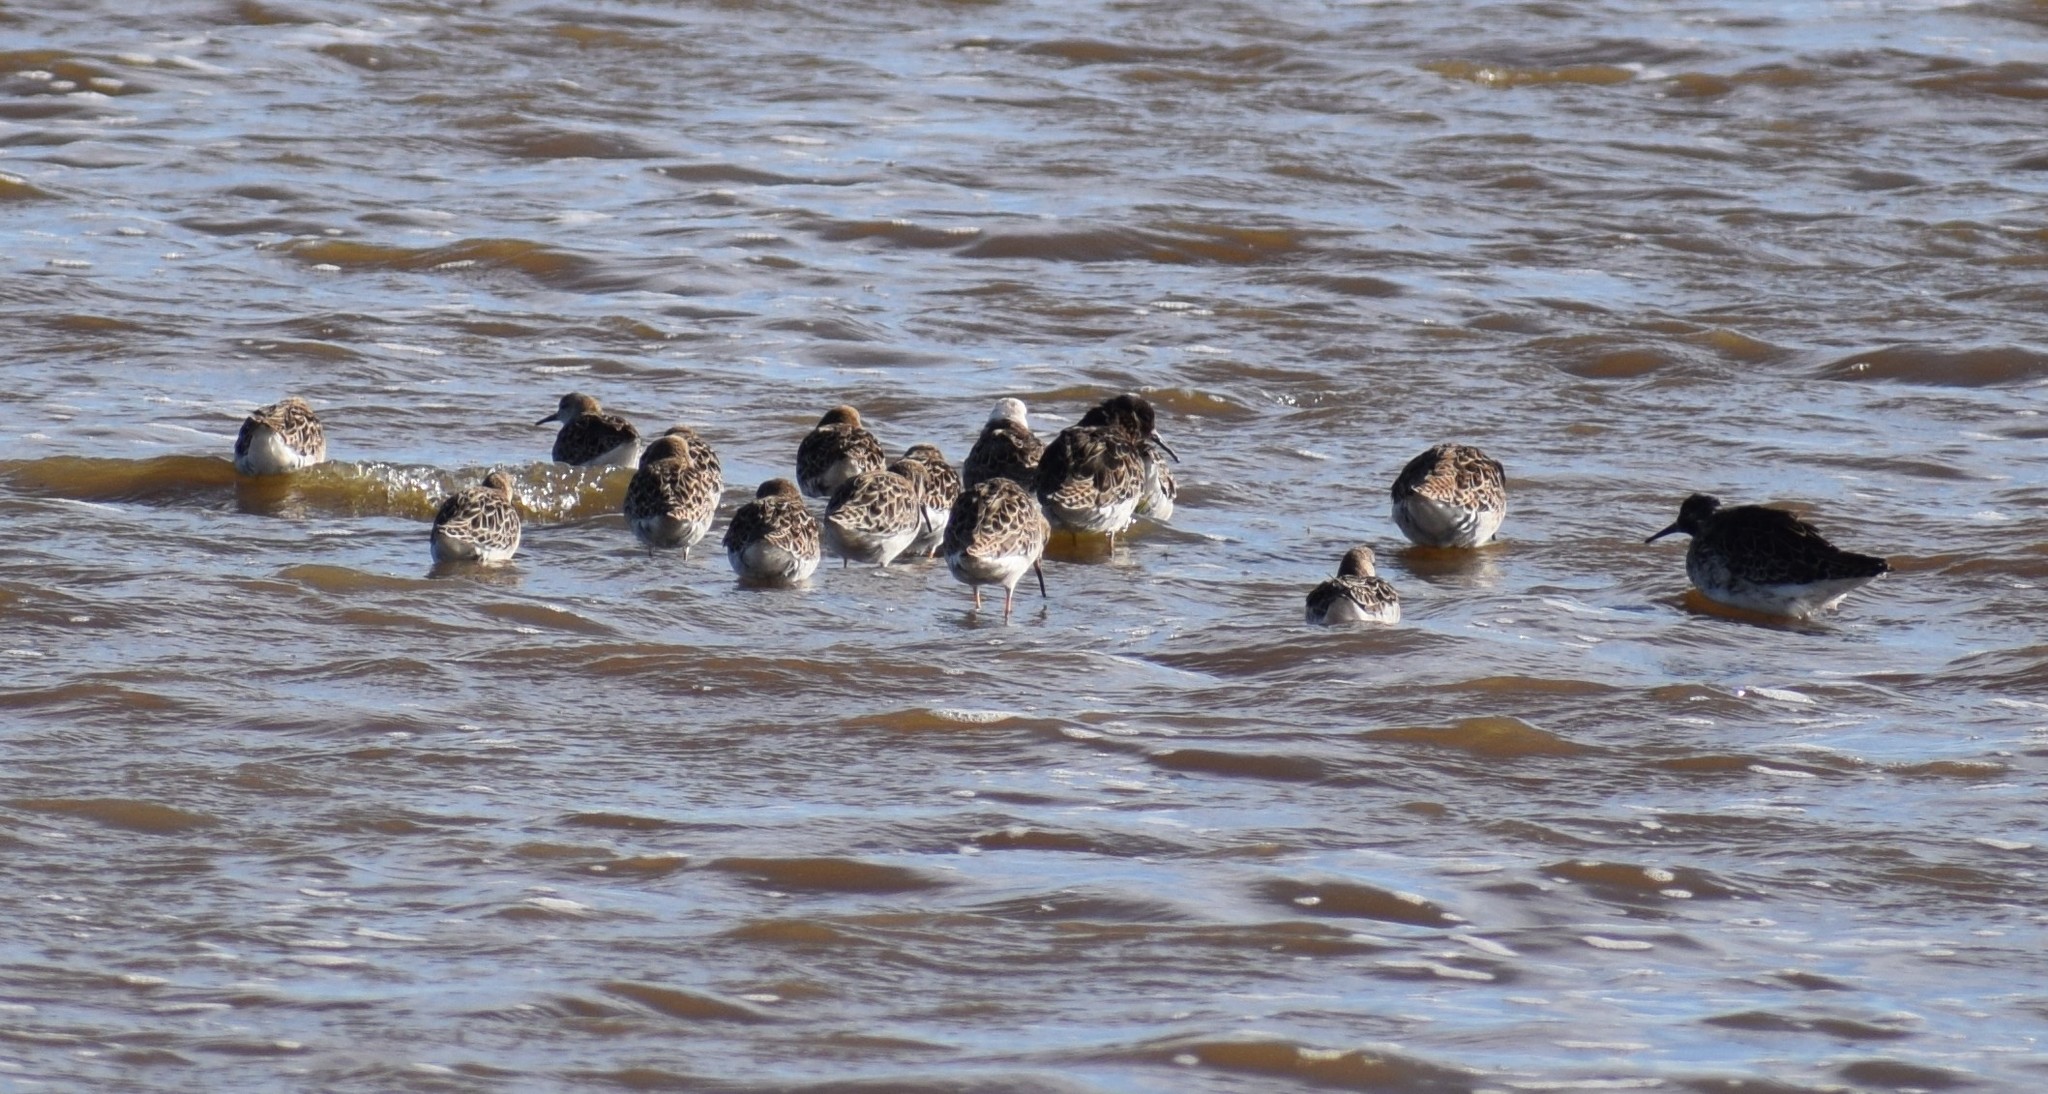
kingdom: Animalia
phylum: Chordata
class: Aves
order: Charadriiformes
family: Scolopacidae
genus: Calidris
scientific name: Calidris pugnax
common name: Ruff
